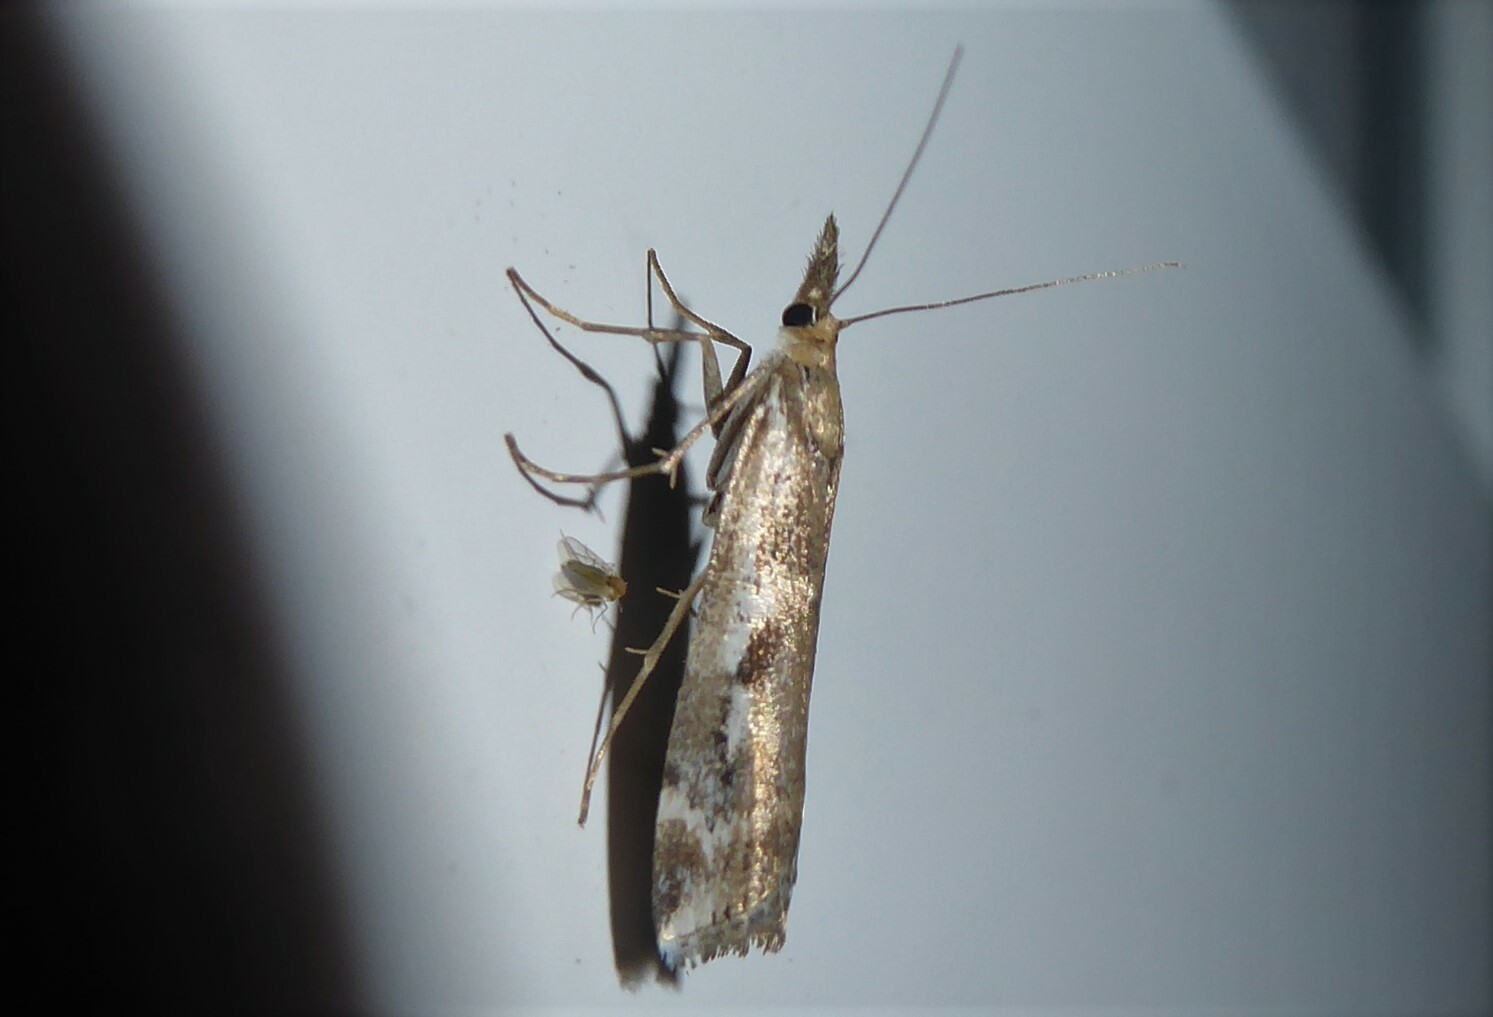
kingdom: Animalia
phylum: Arthropoda
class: Insecta
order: Lepidoptera
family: Crambidae
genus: Orocrambus
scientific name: Orocrambus vulgaris
